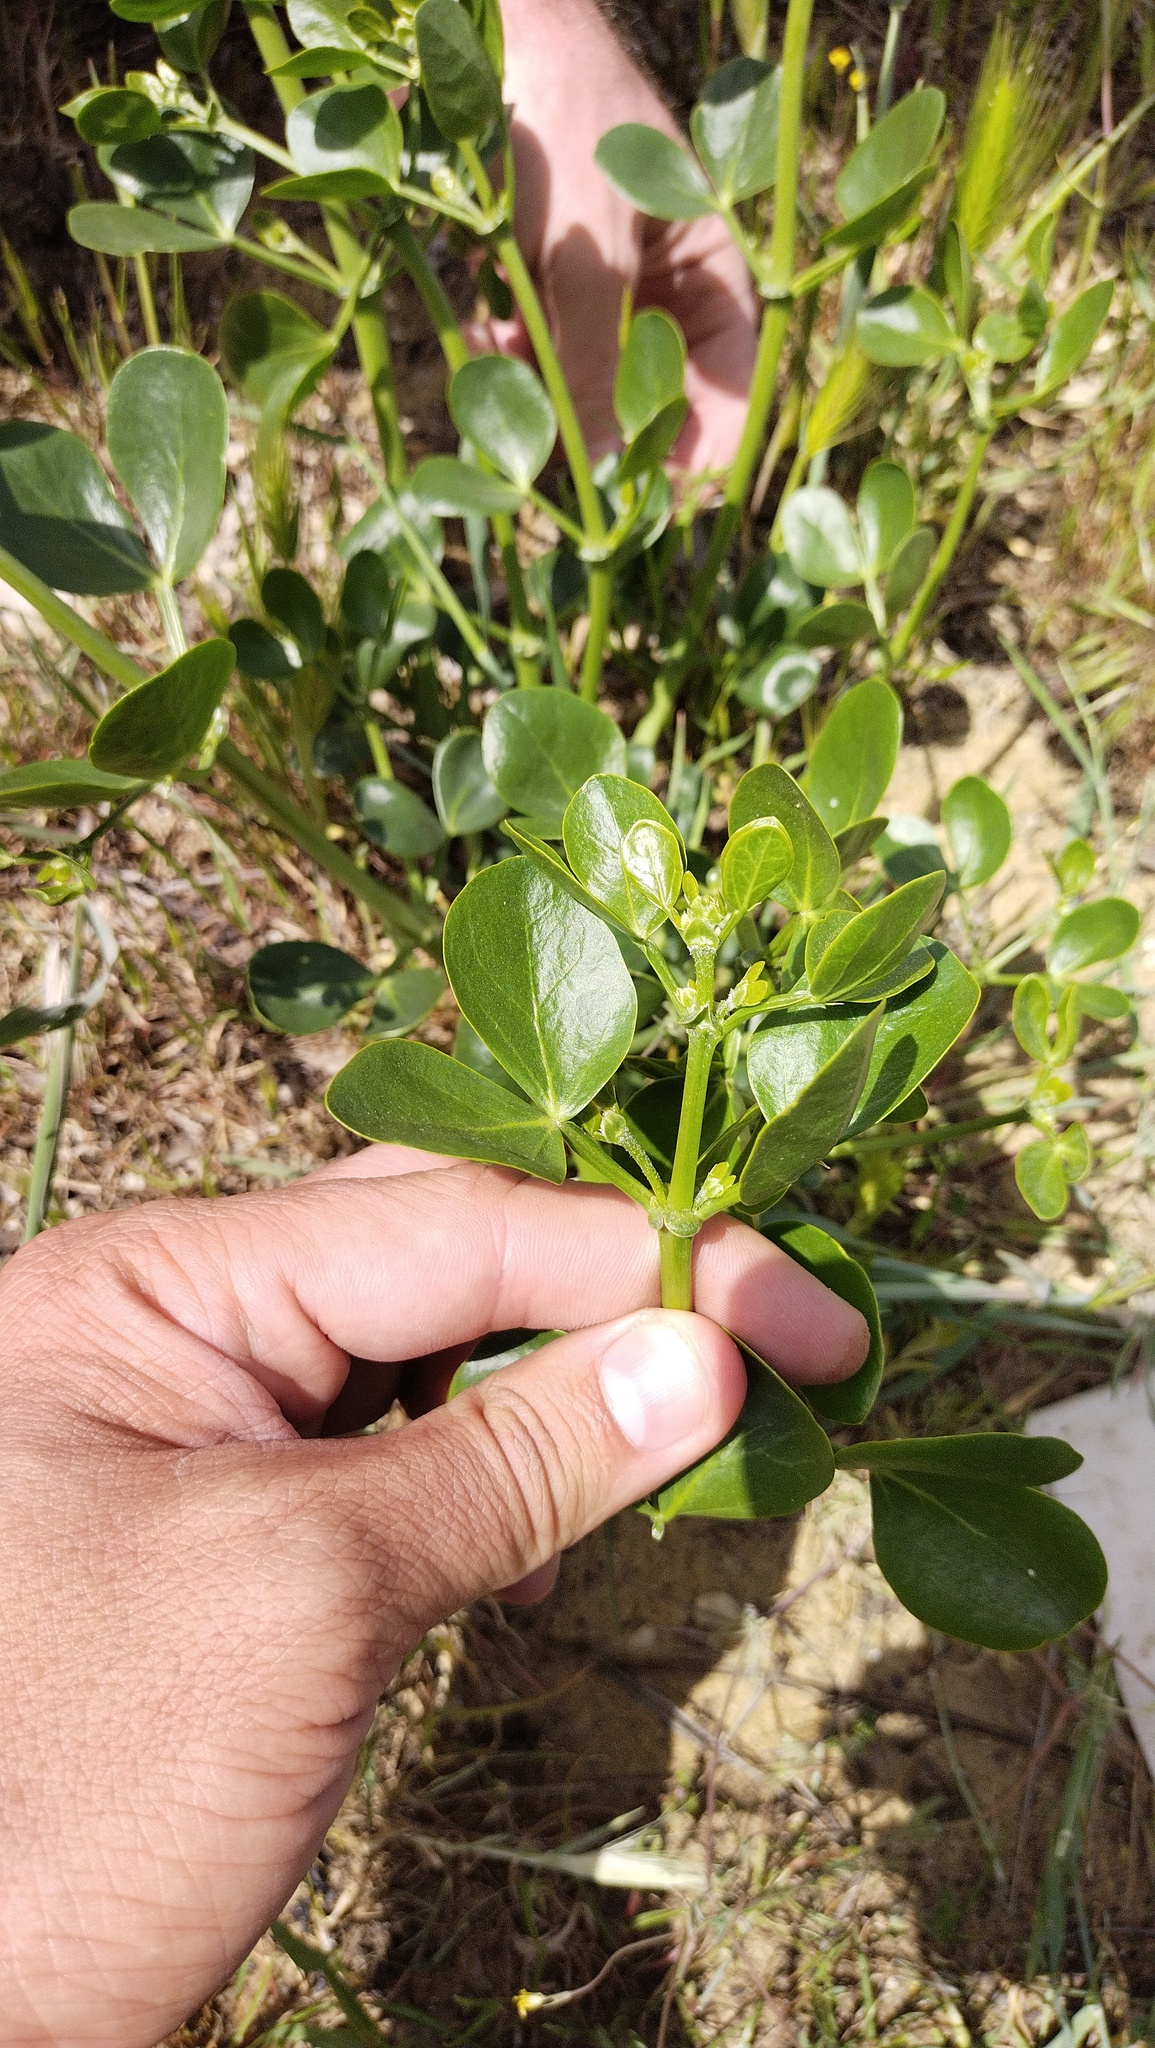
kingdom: Plantae
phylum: Tracheophyta
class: Magnoliopsida
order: Zygophyllales
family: Zygophyllaceae
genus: Zygophyllum
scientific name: Zygophyllum fabago
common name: Syrian beancaper
